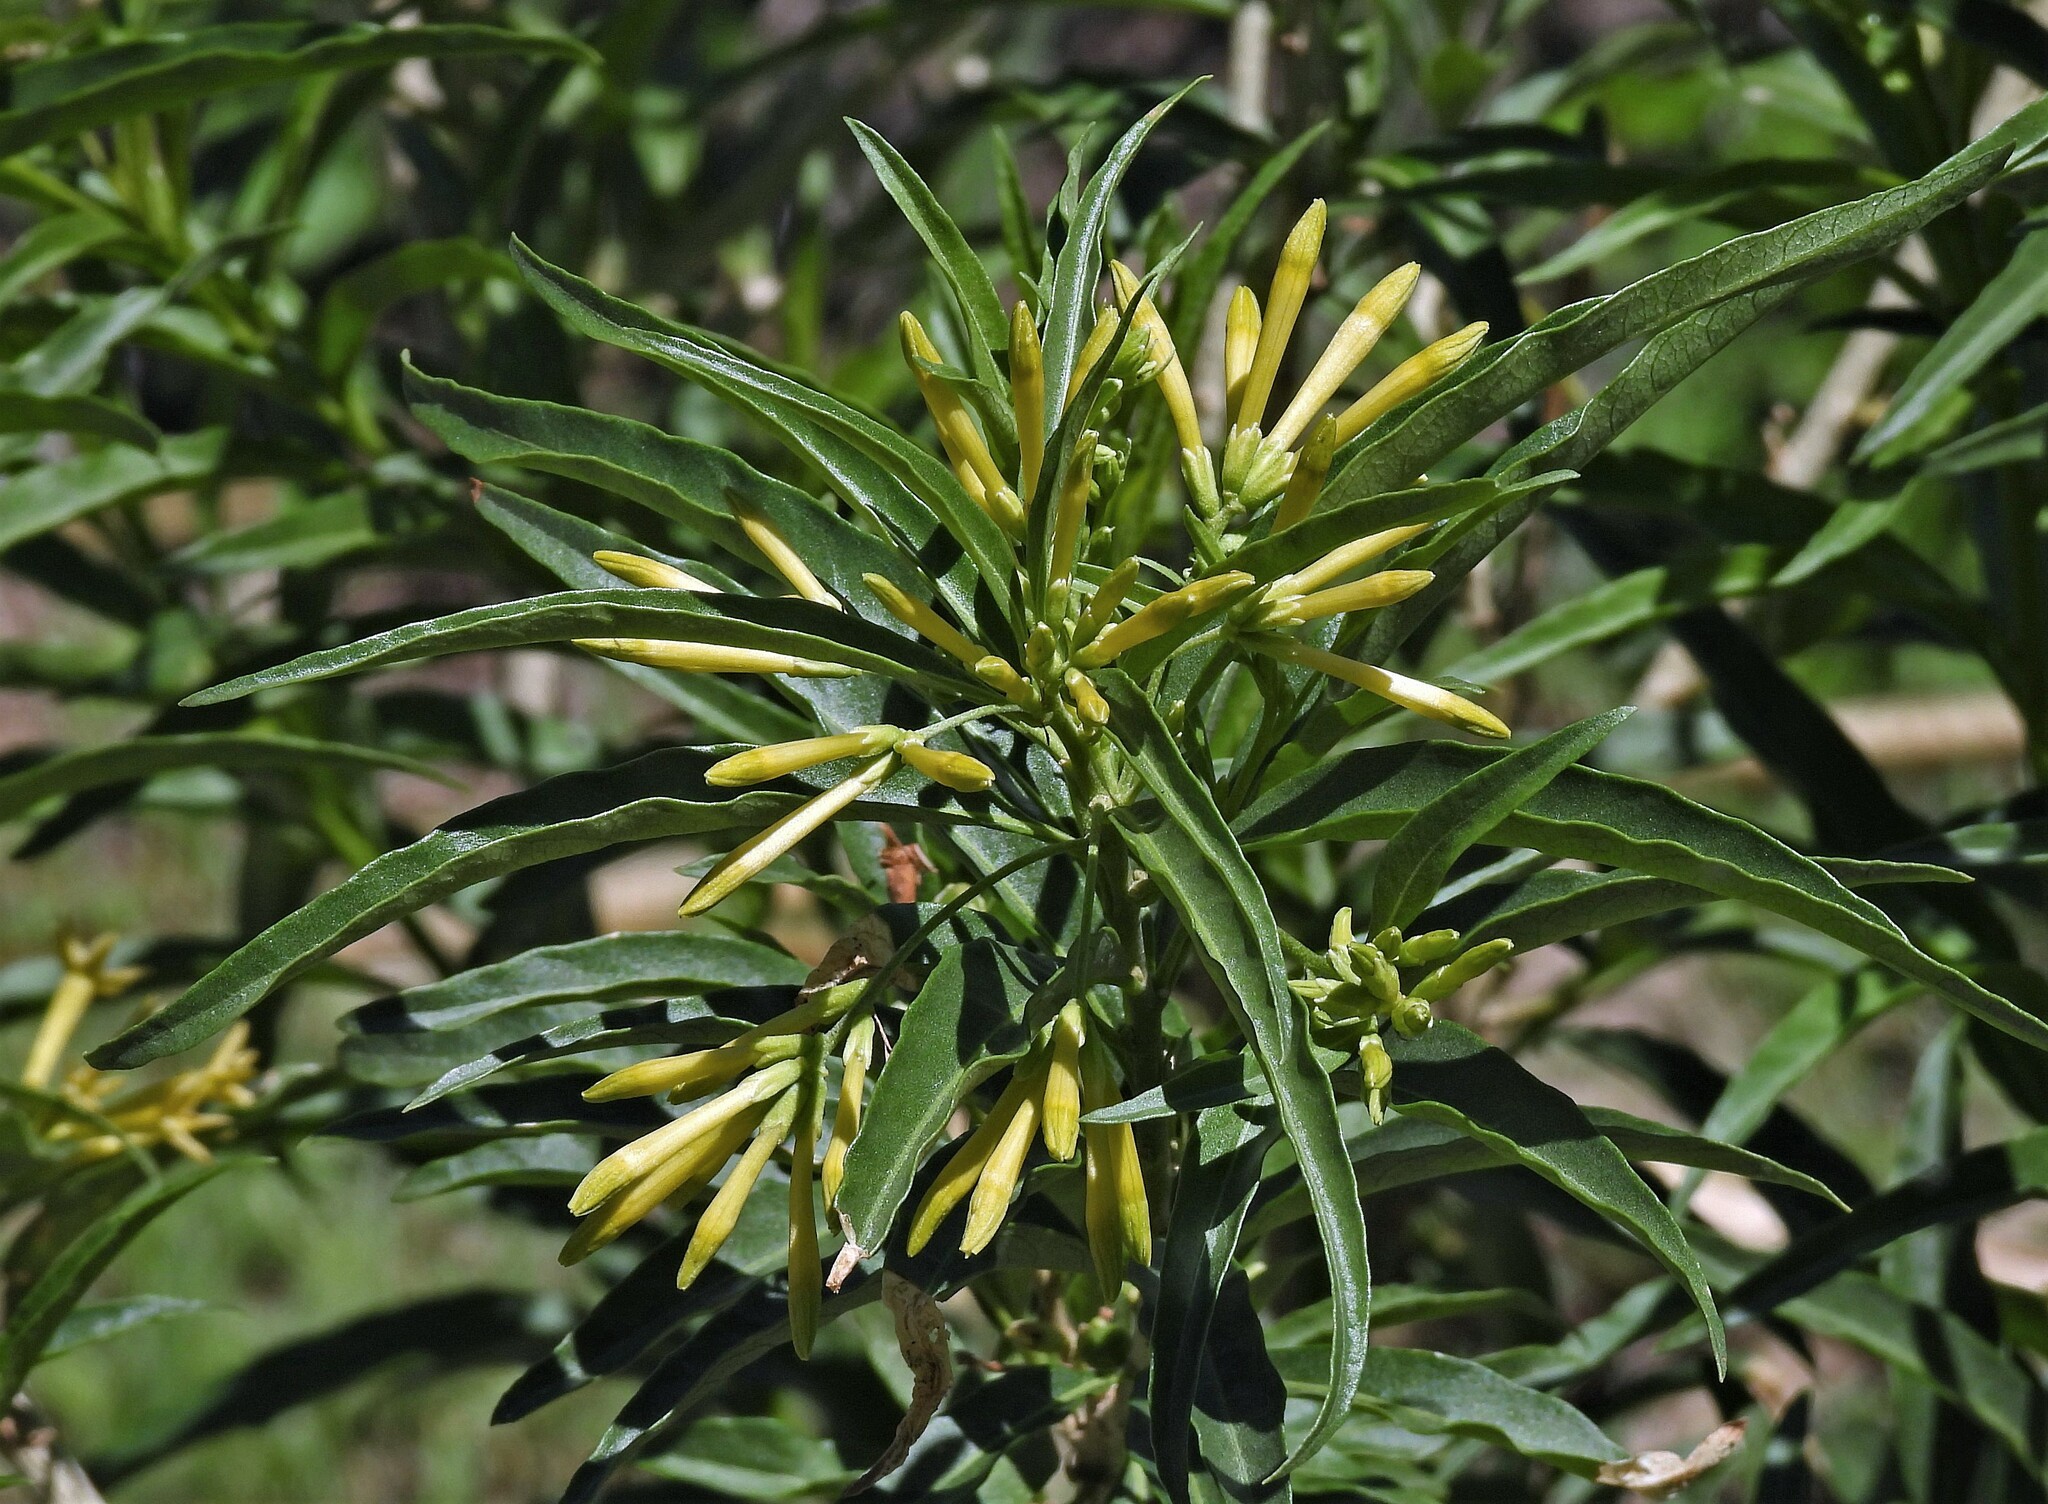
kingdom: Plantae
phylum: Tracheophyta
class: Magnoliopsida
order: Solanales
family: Solanaceae
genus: Cestrum
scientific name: Cestrum parqui
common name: Chilean cestrum
